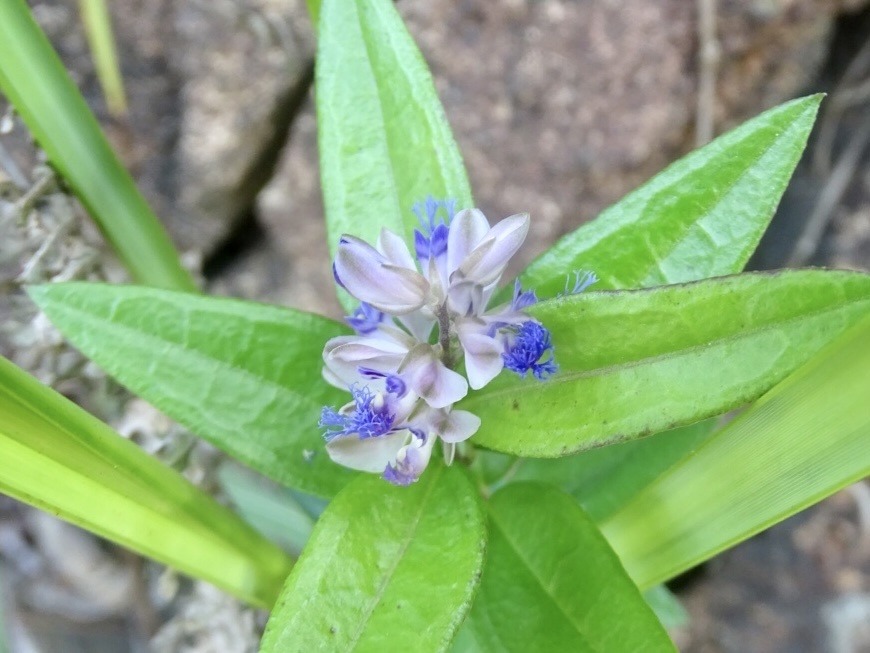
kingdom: Plantae
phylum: Tracheophyta
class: Magnoliopsida
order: Fabales
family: Polygalaceae
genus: Polygala
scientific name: Polygala hongkongensis
